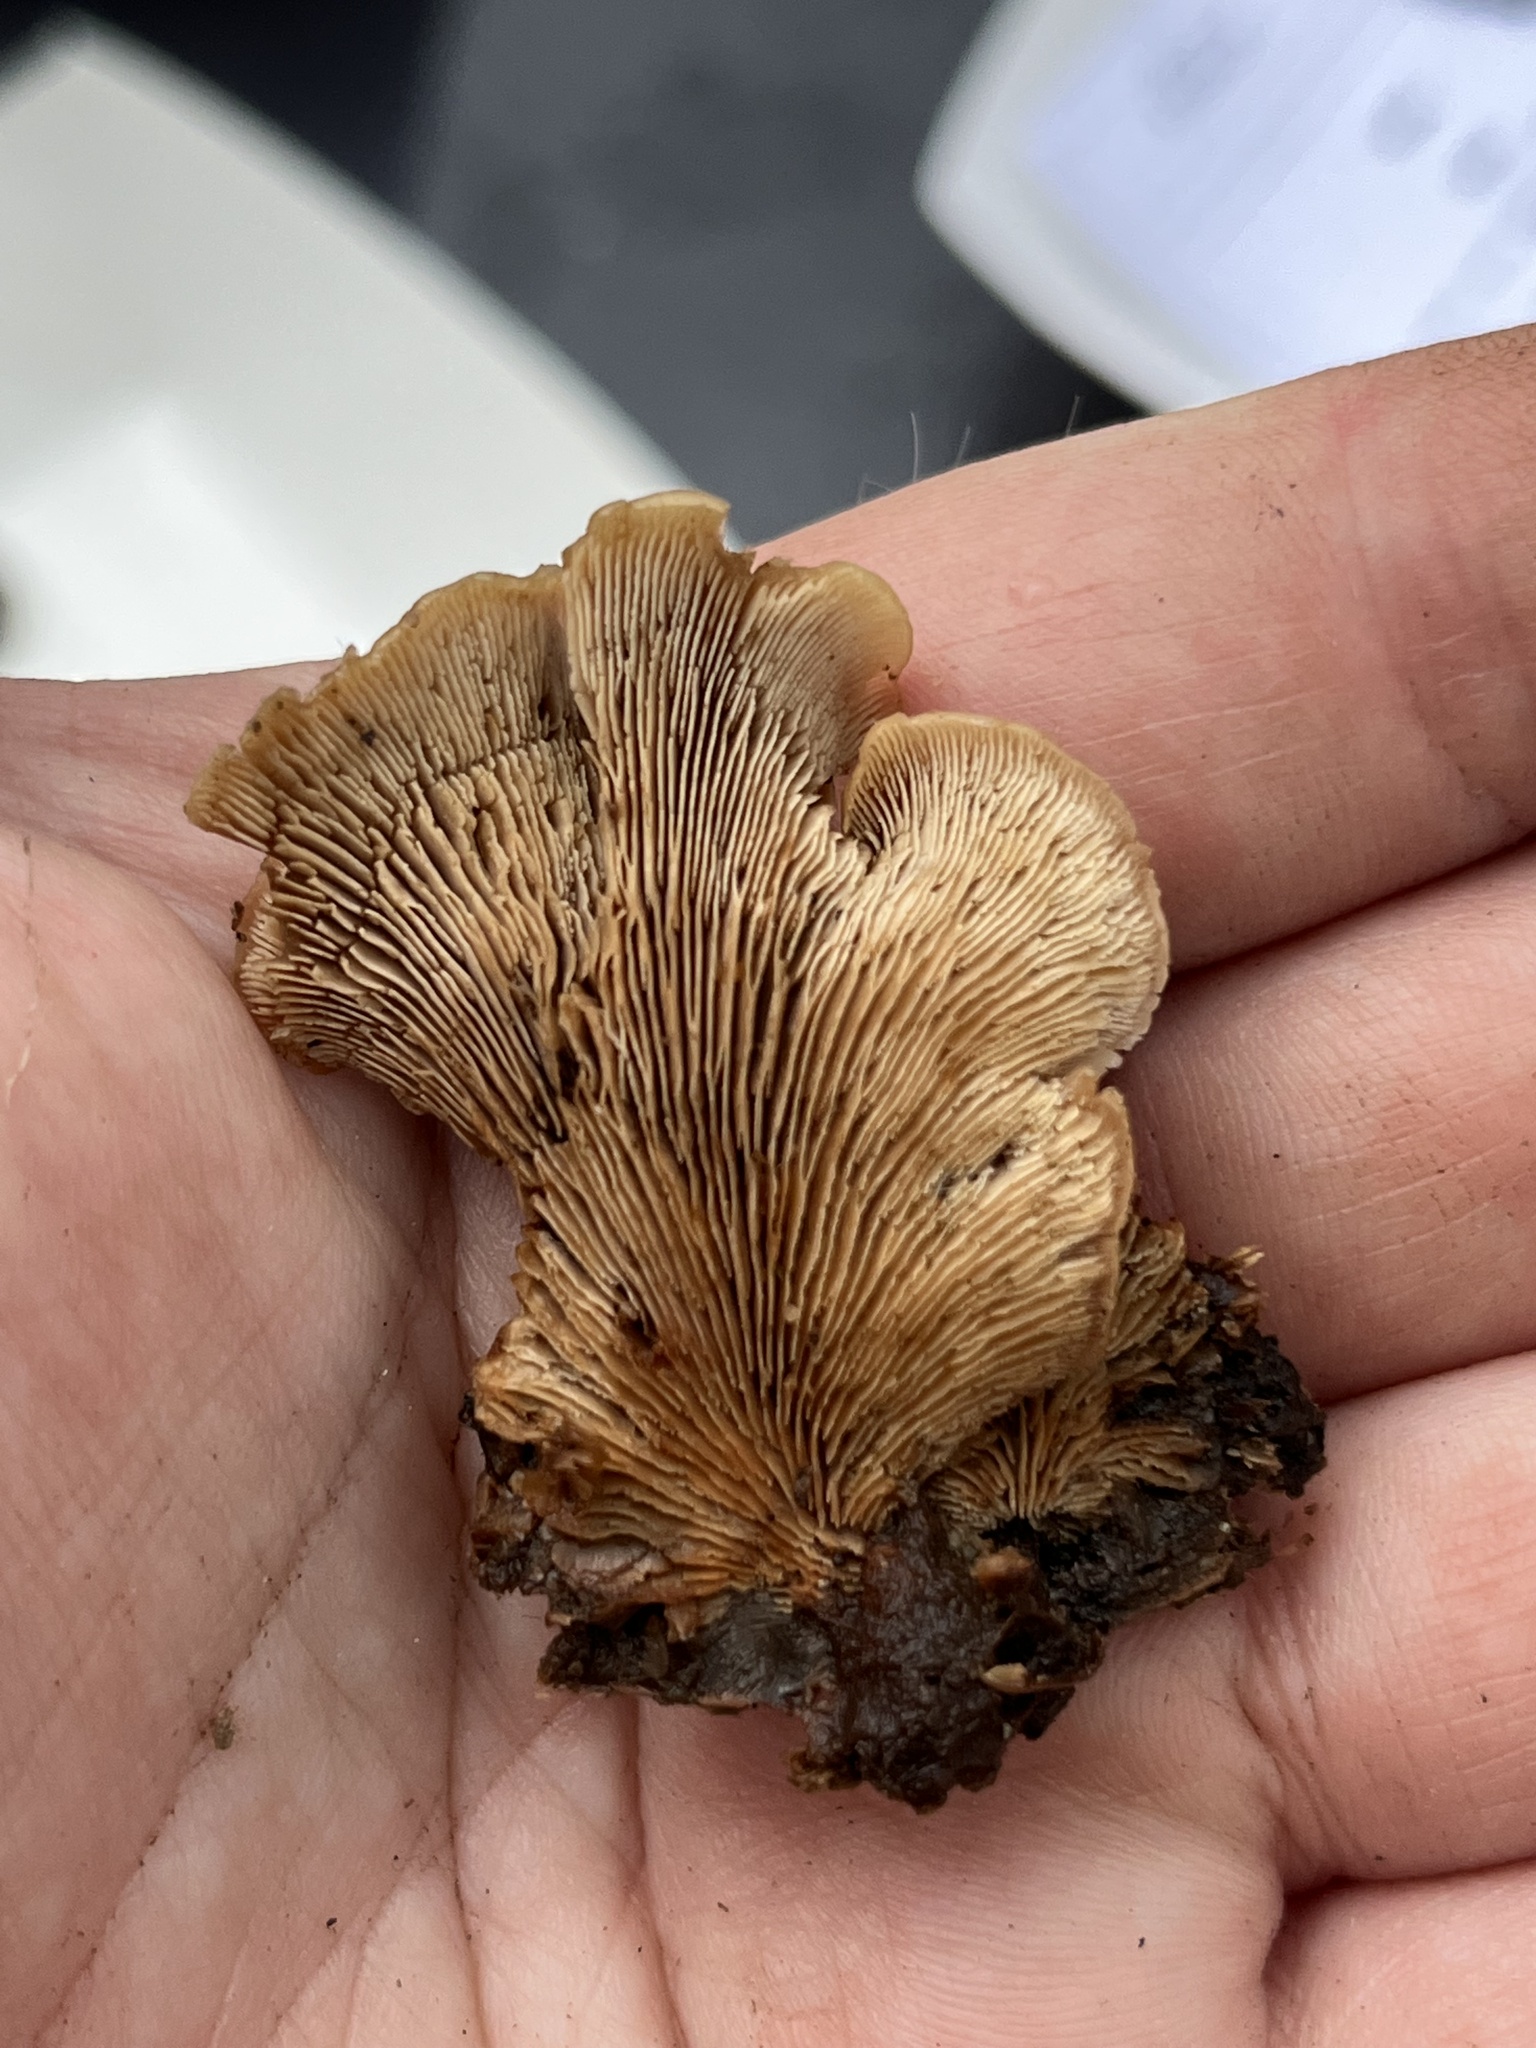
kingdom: Fungi
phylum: Basidiomycota
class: Agaricomycetes
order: Russulales
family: Auriscalpiaceae
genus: Lentinellus
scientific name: Lentinellus ursinus
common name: Bear lentinus
